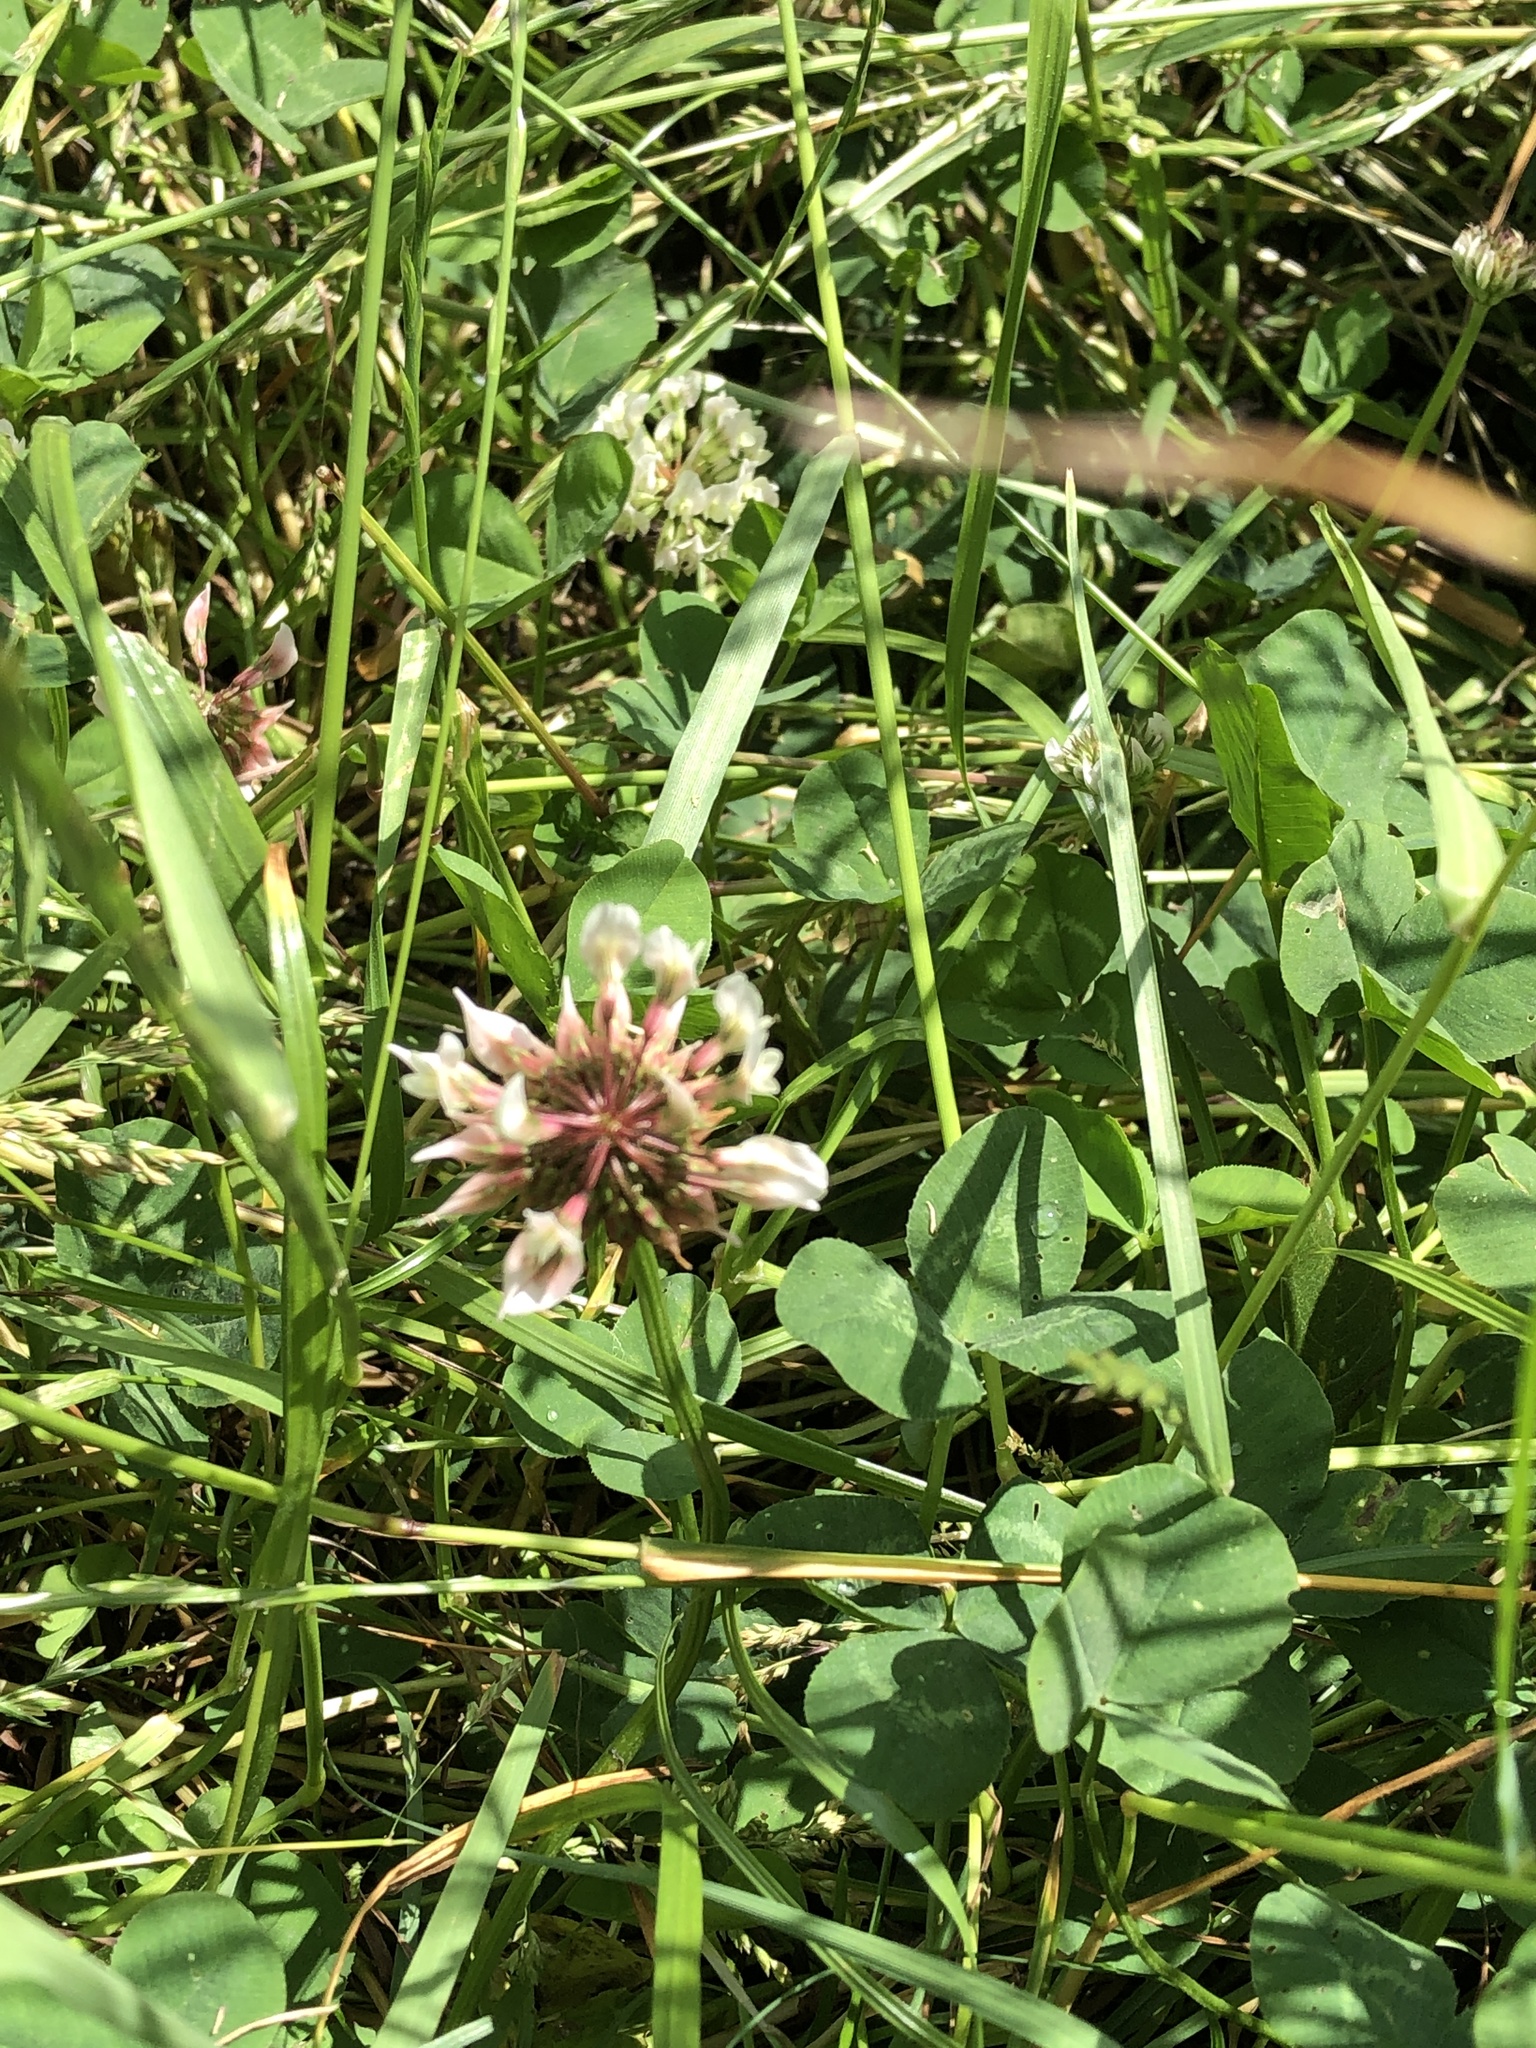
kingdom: Plantae
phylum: Tracheophyta
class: Magnoliopsida
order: Fabales
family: Fabaceae
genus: Trifolium
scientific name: Trifolium repens
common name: White clover
